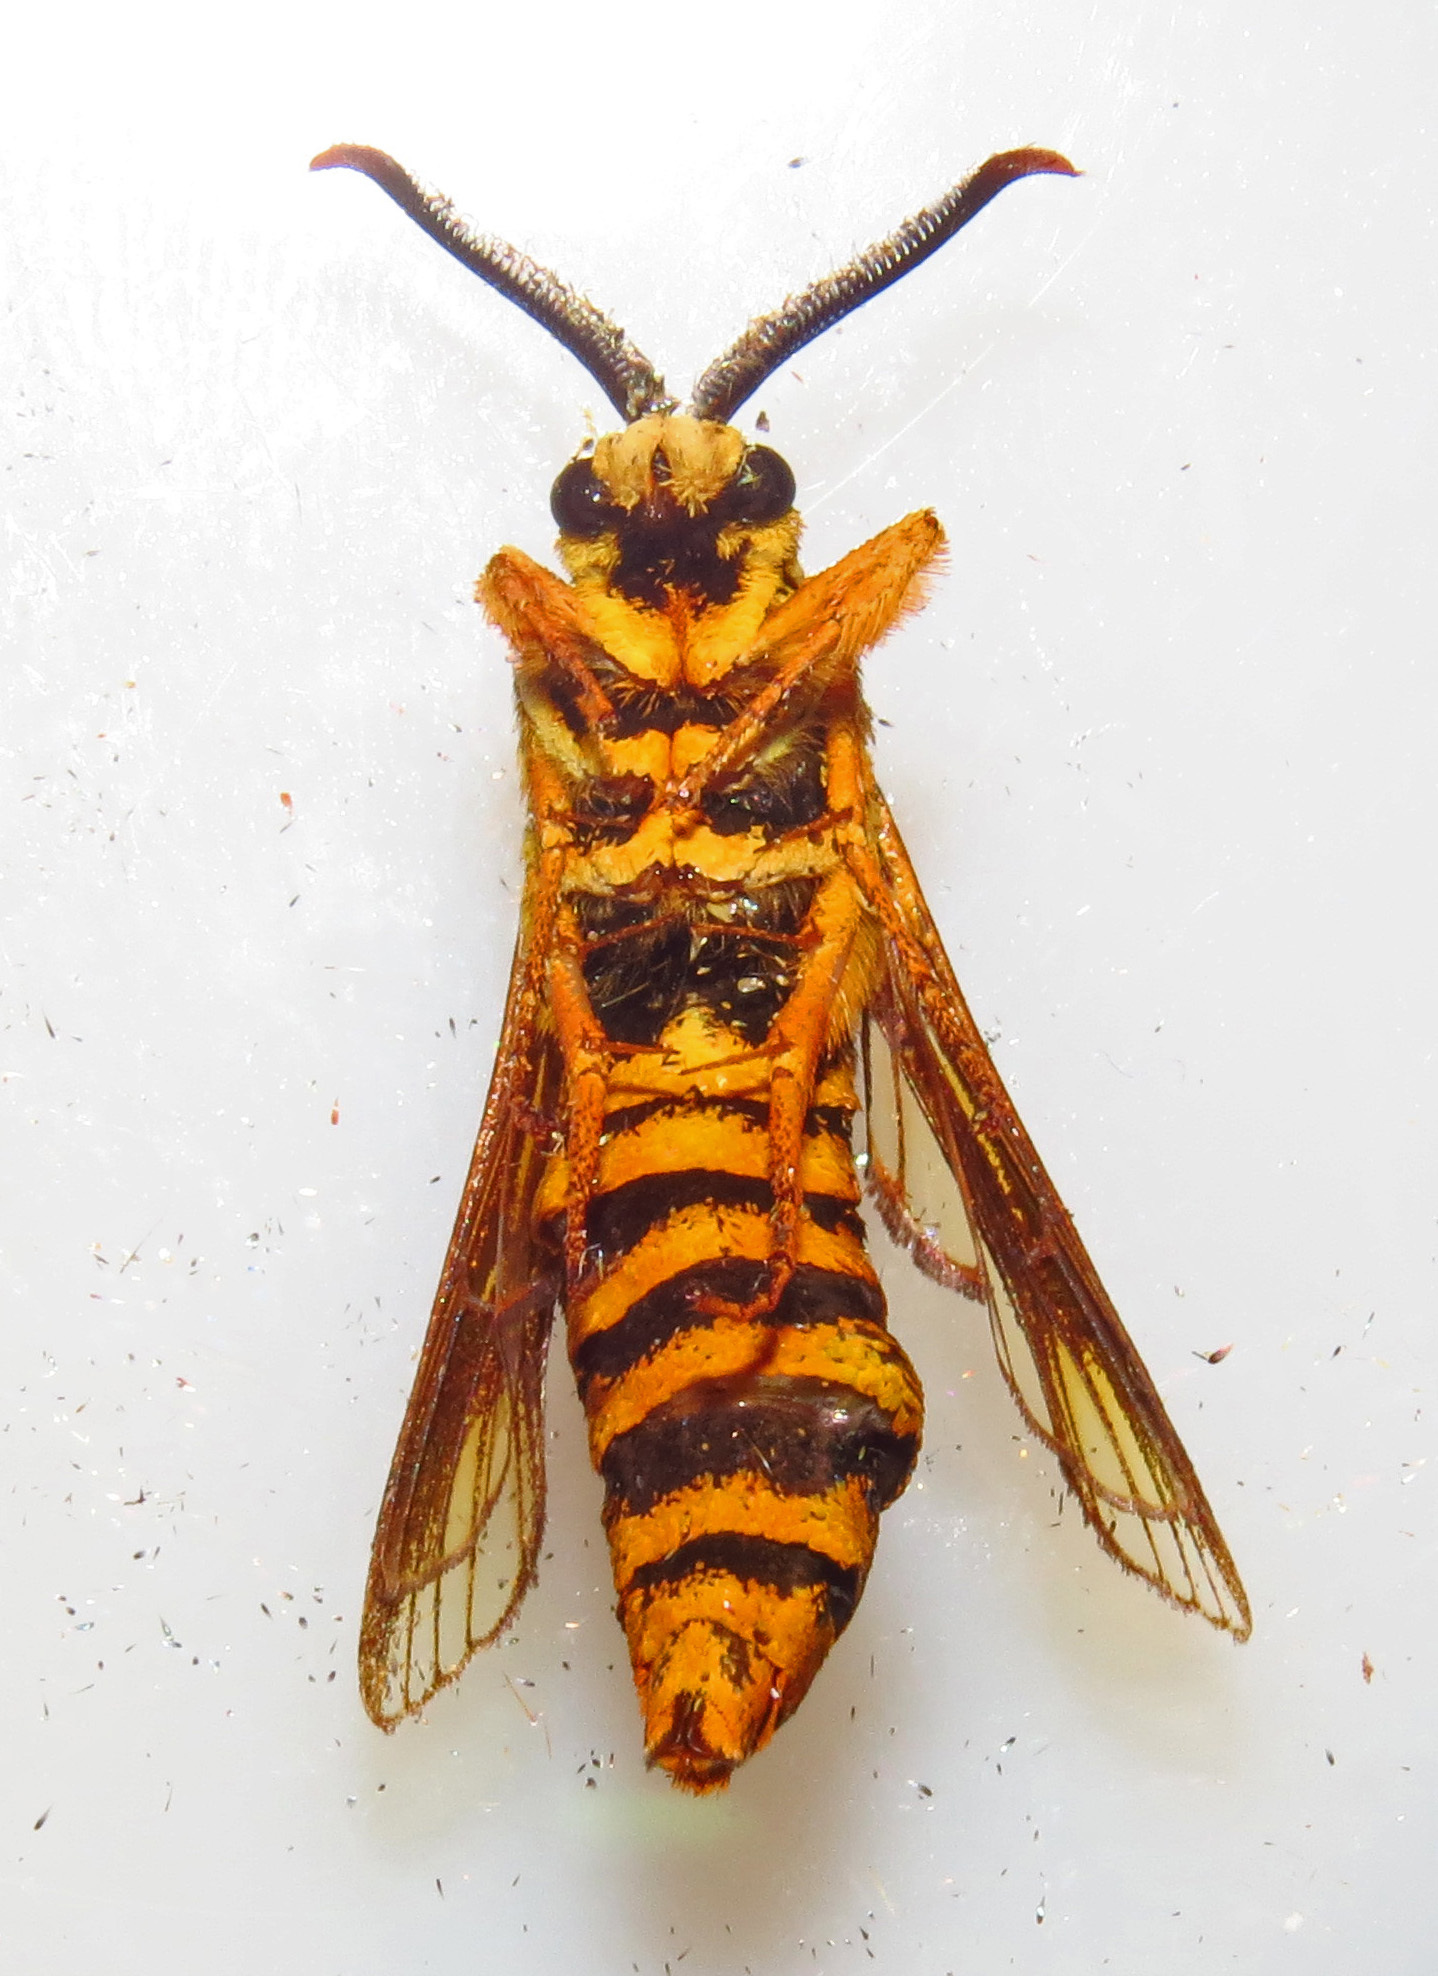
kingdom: Animalia
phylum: Arthropoda
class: Insecta
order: Lepidoptera
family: Sesiidae
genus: Paranthrene
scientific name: Paranthrene simulans
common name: Hornet clearwing moth
